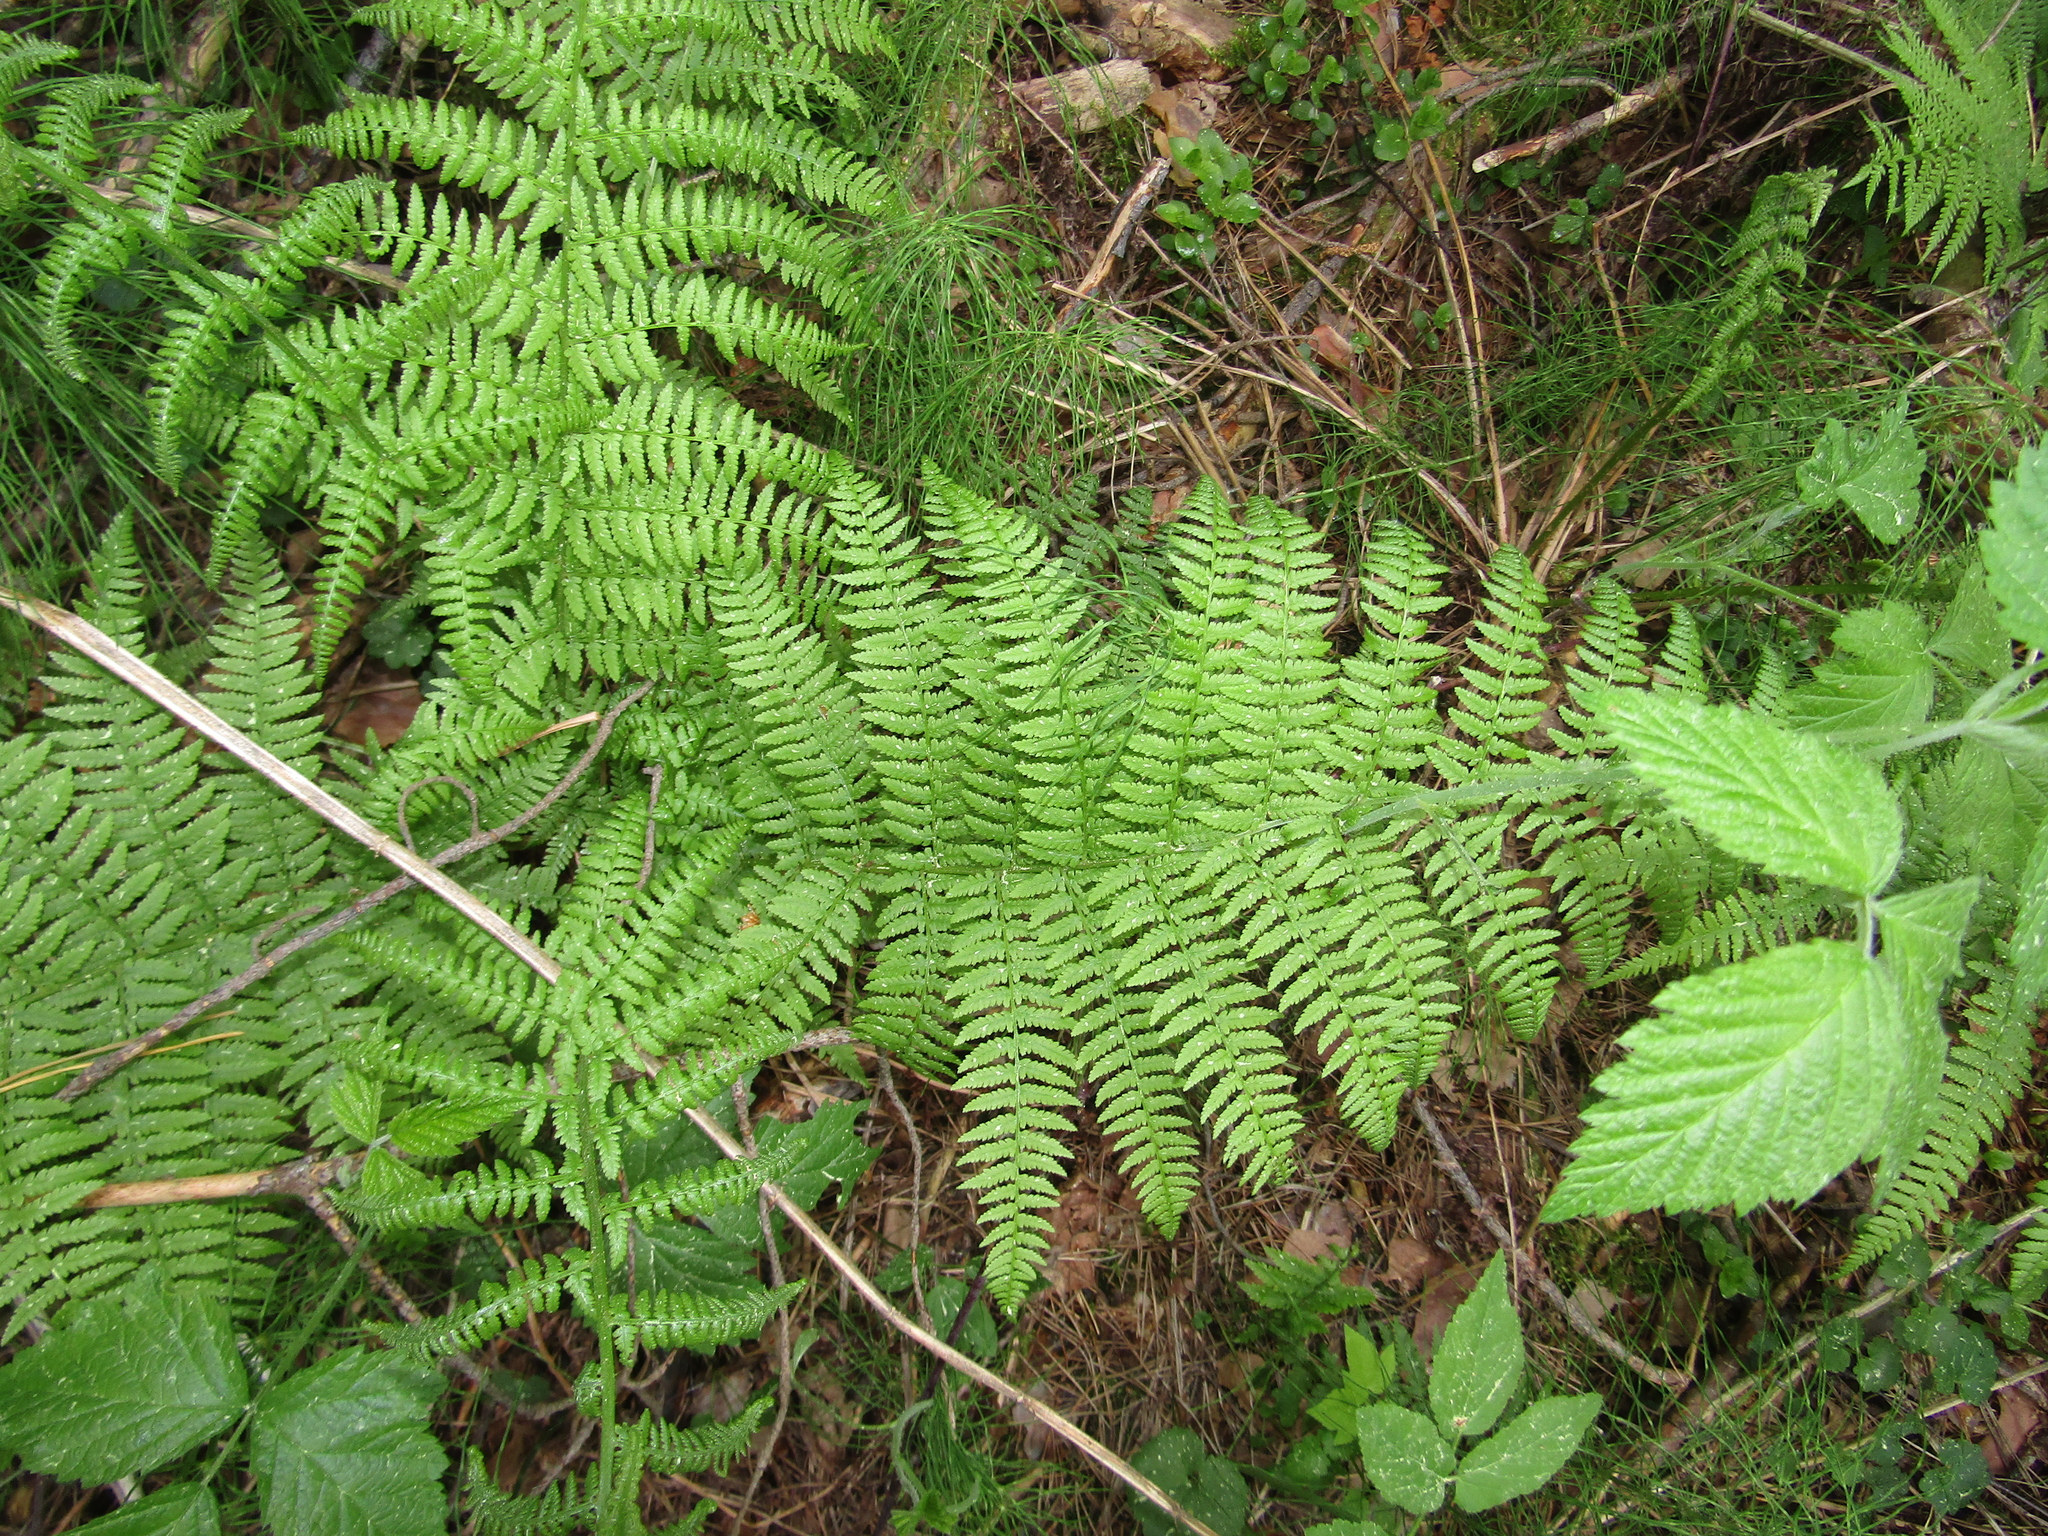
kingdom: Plantae
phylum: Tracheophyta
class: Polypodiopsida
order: Polypodiales
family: Athyriaceae
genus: Athyrium
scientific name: Athyrium filix-femina
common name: Lady fern
